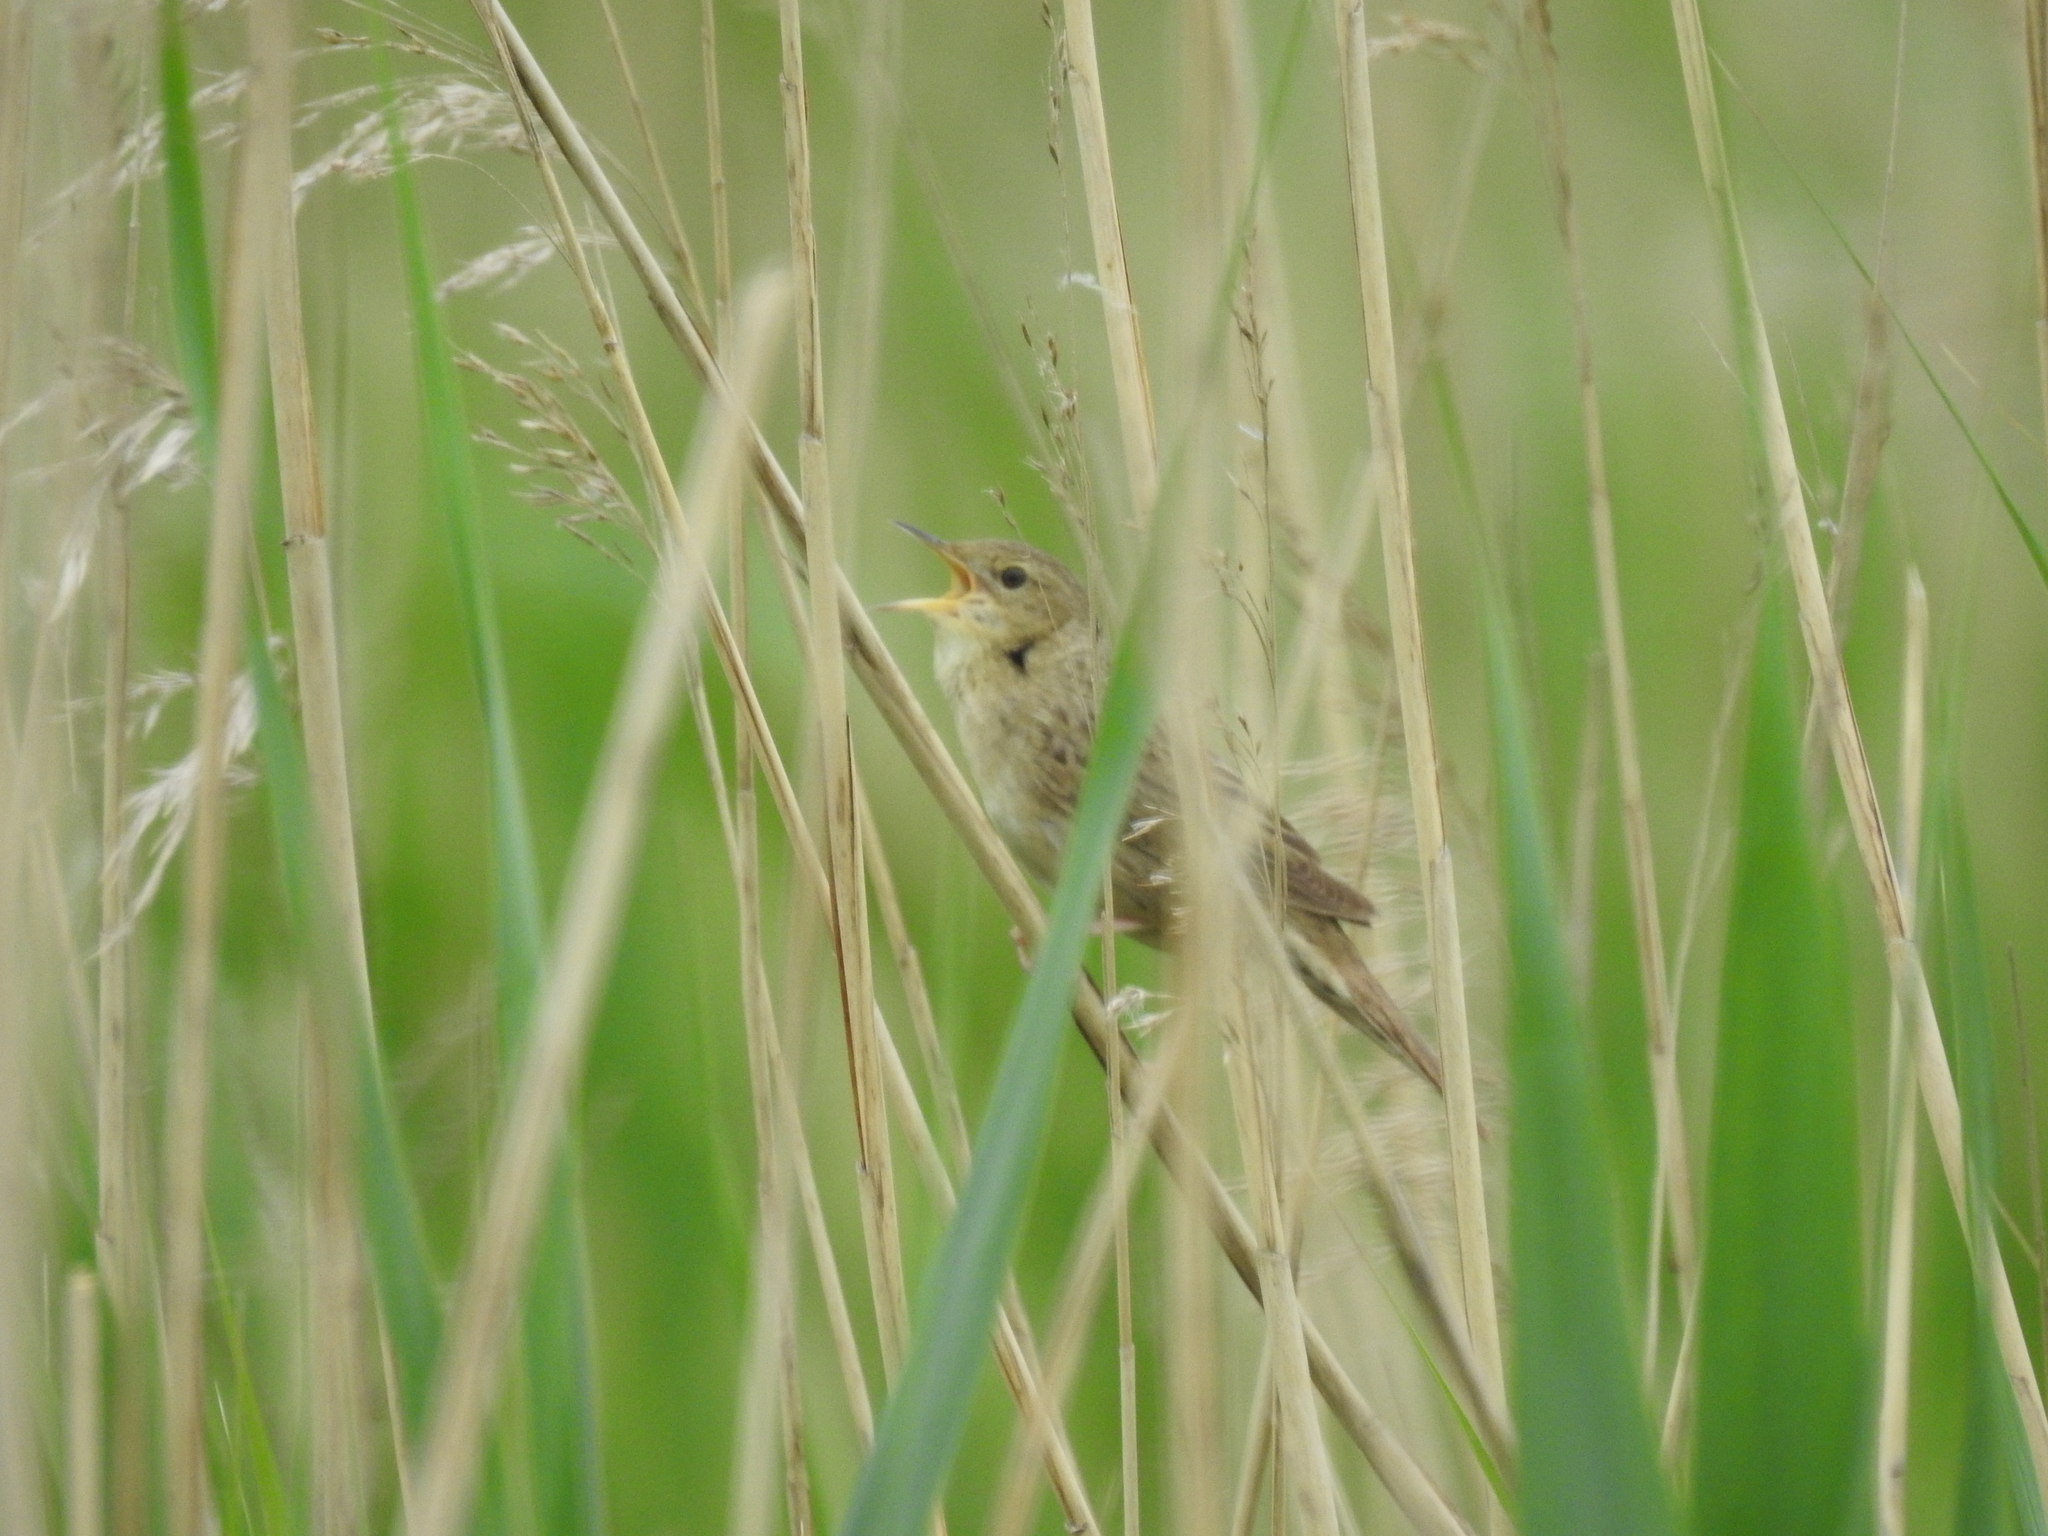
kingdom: Animalia
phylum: Chordata
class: Aves
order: Passeriformes
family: Locustellidae
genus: Locustella
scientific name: Locustella naevia
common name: Common grasshopper warbler
